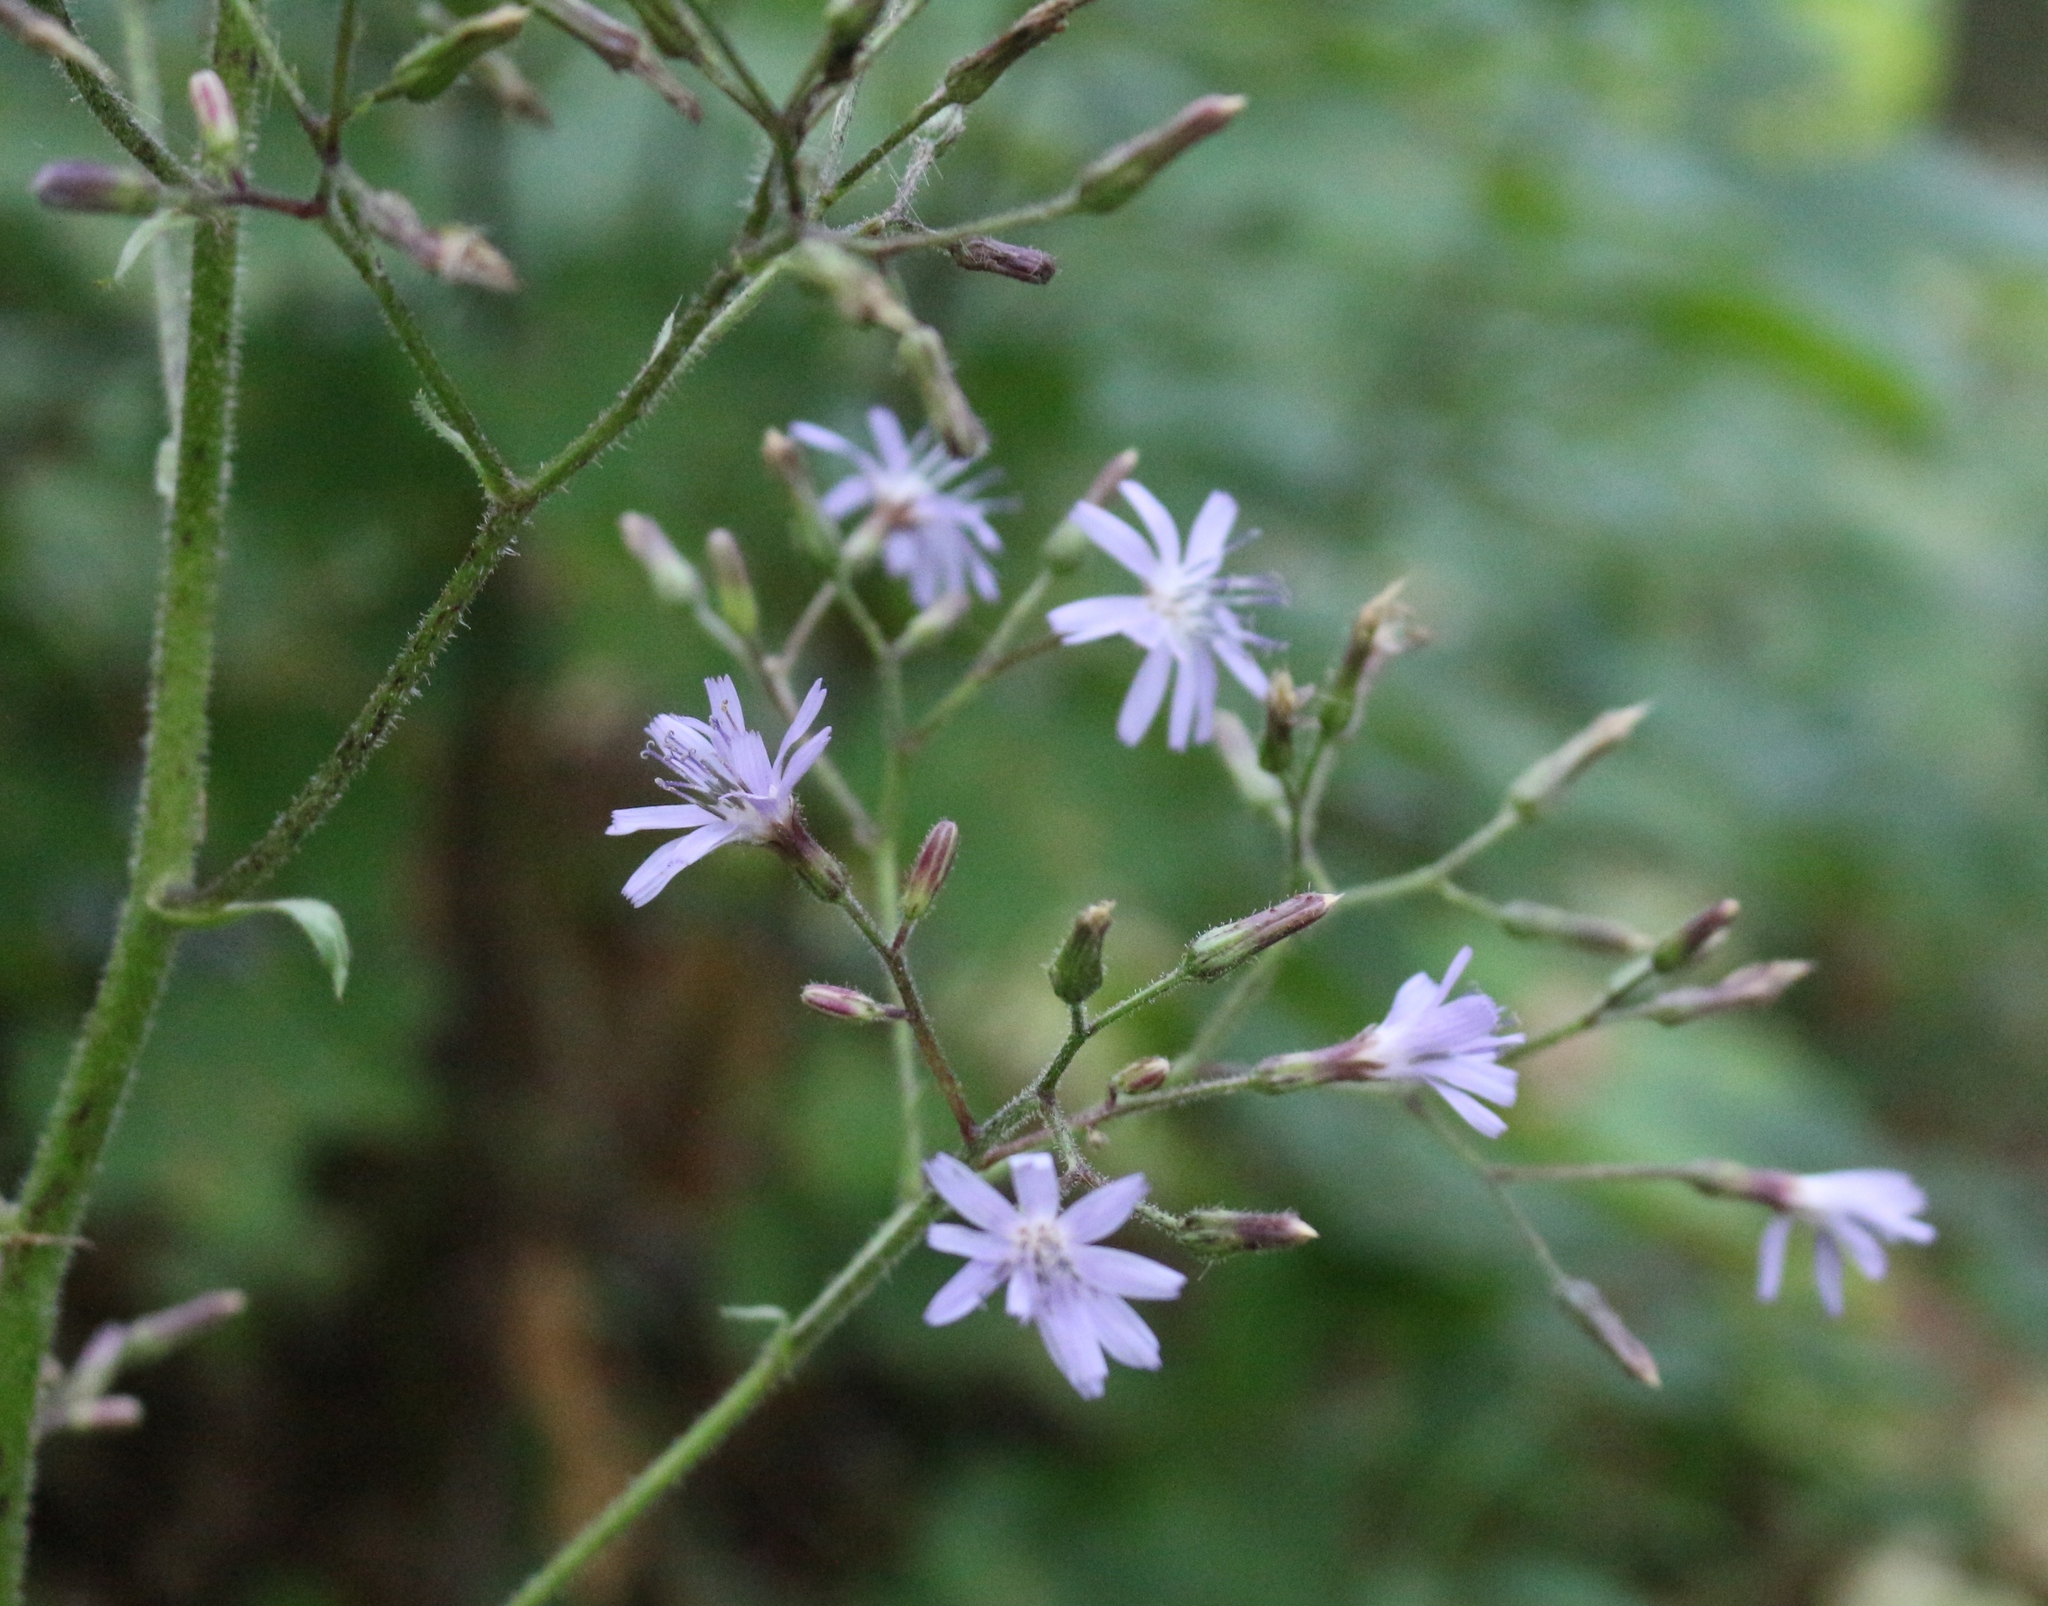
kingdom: Plantae
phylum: Tracheophyta
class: Magnoliopsida
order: Asterales
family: Asteraceae
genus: Cicerbita
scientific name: Cicerbita petiolata
